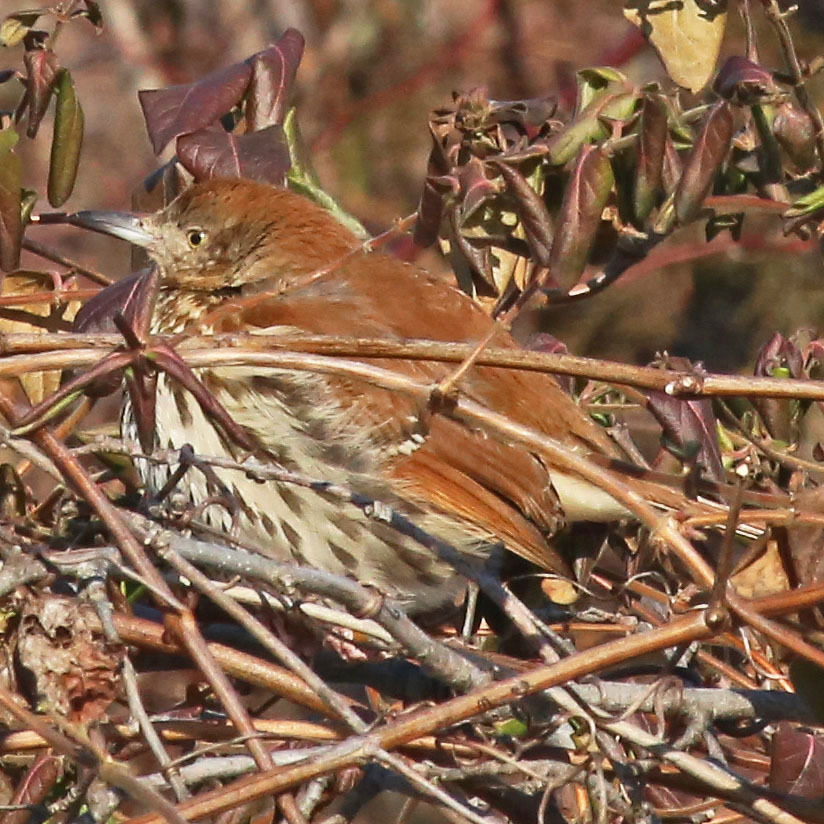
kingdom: Animalia
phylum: Chordata
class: Aves
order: Passeriformes
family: Mimidae
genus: Toxostoma
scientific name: Toxostoma rufum
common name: Brown thrasher
